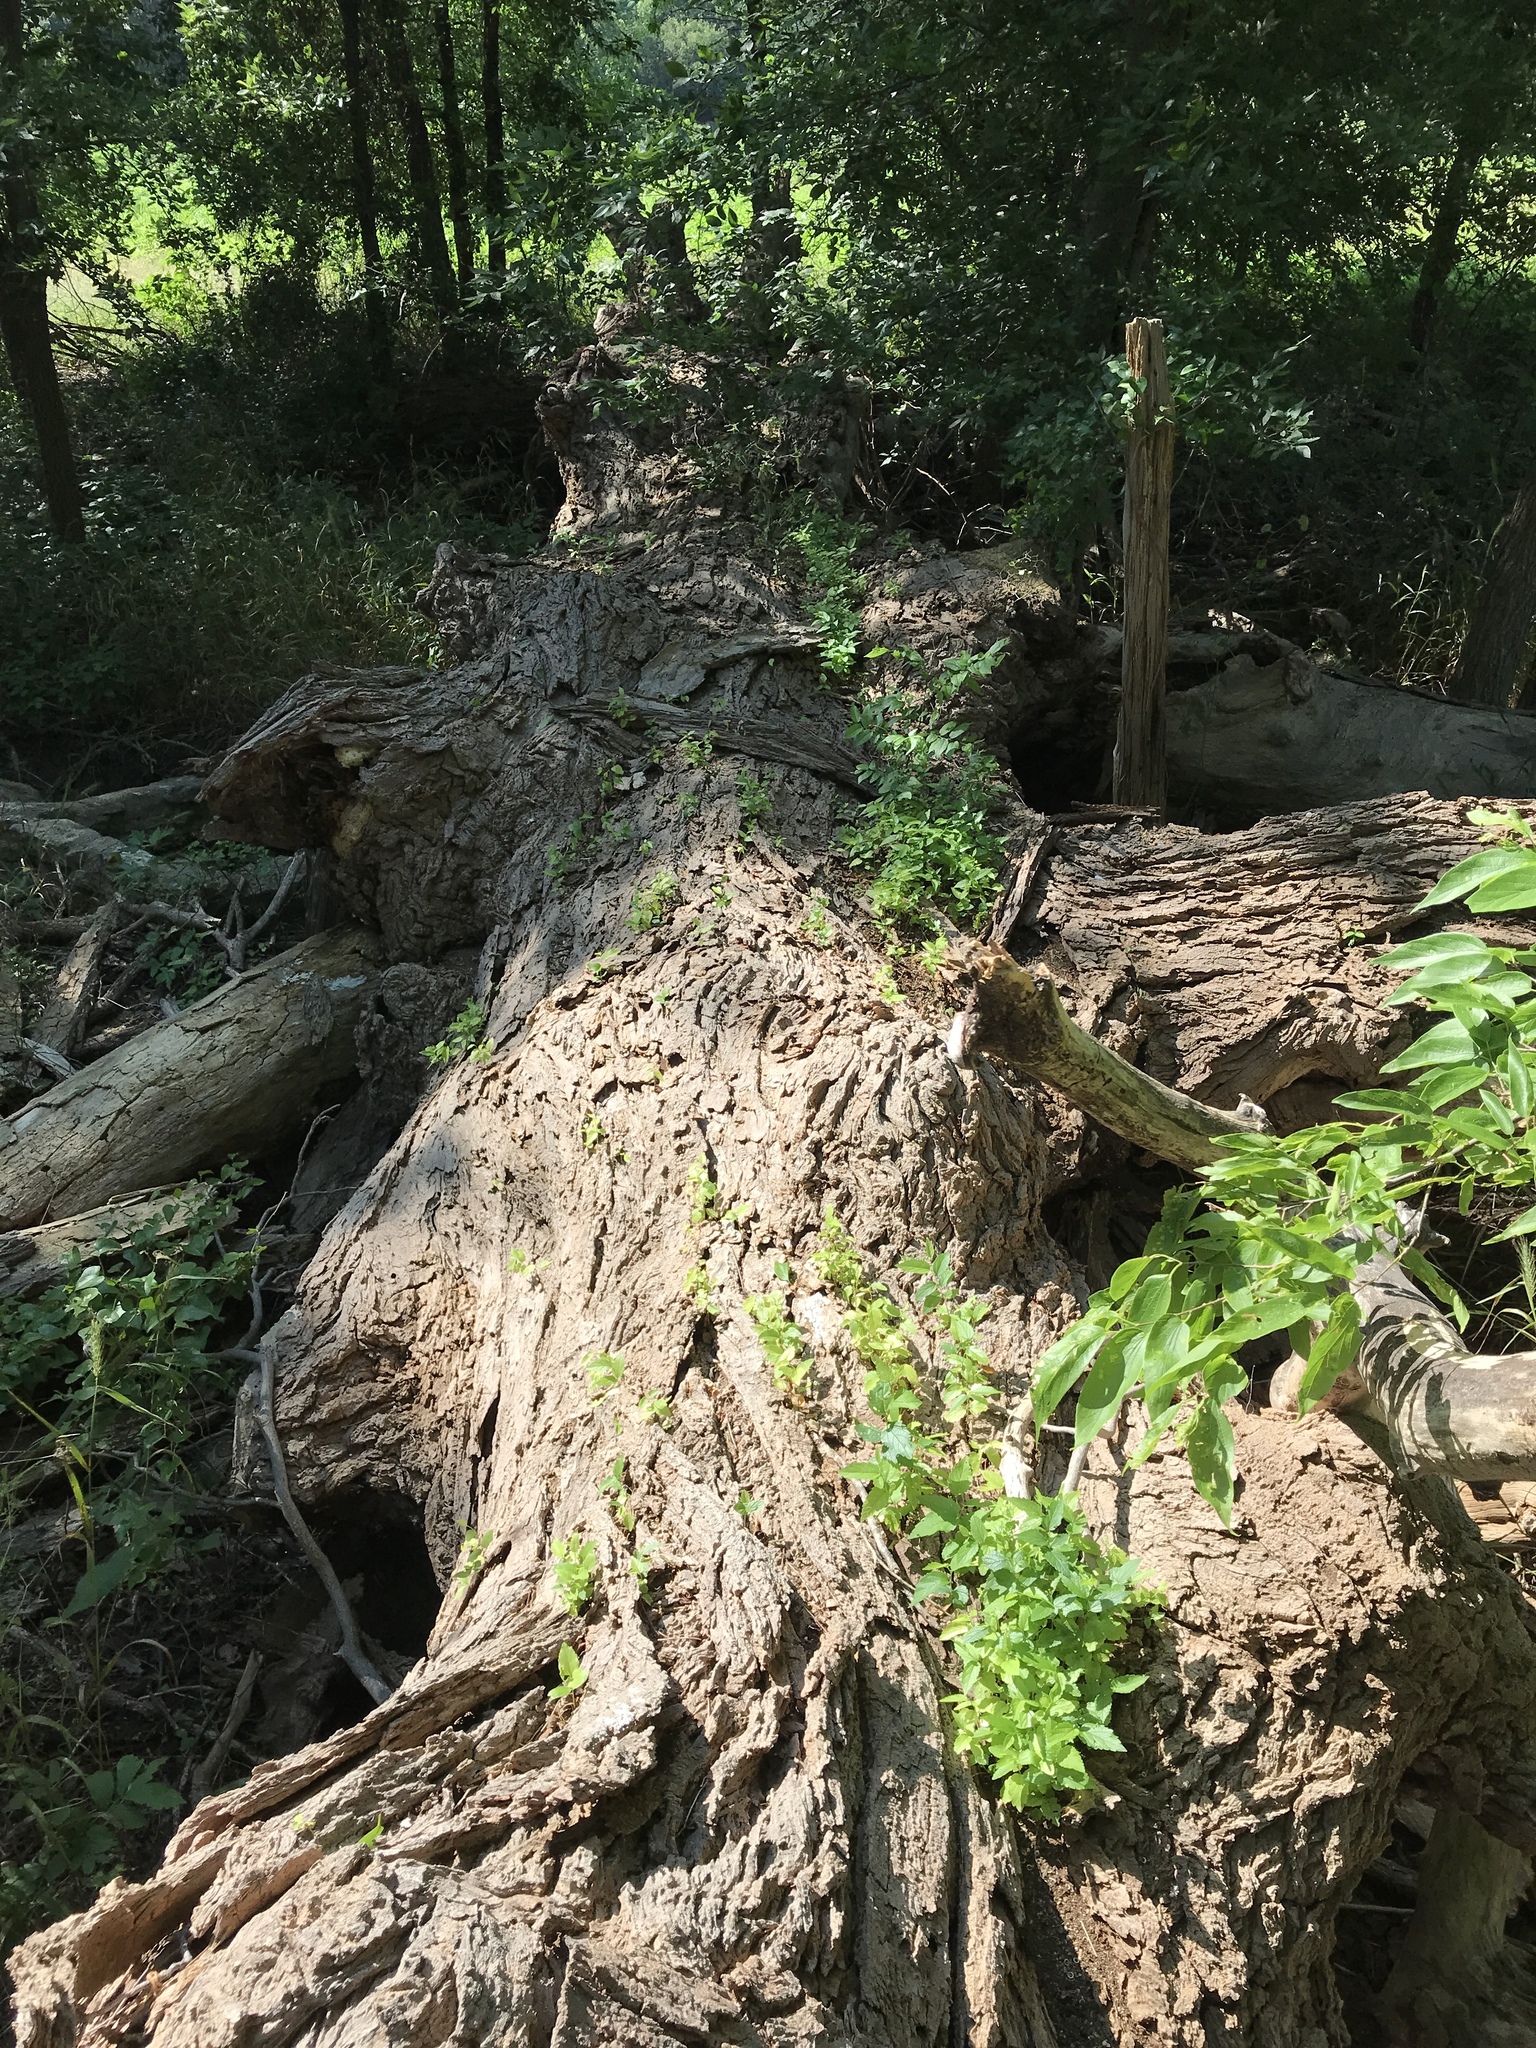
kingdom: Plantae
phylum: Tracheophyta
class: Magnoliopsida
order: Fagales
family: Juglandaceae
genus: Carya
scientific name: Carya illinoinensis
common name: Pecan
